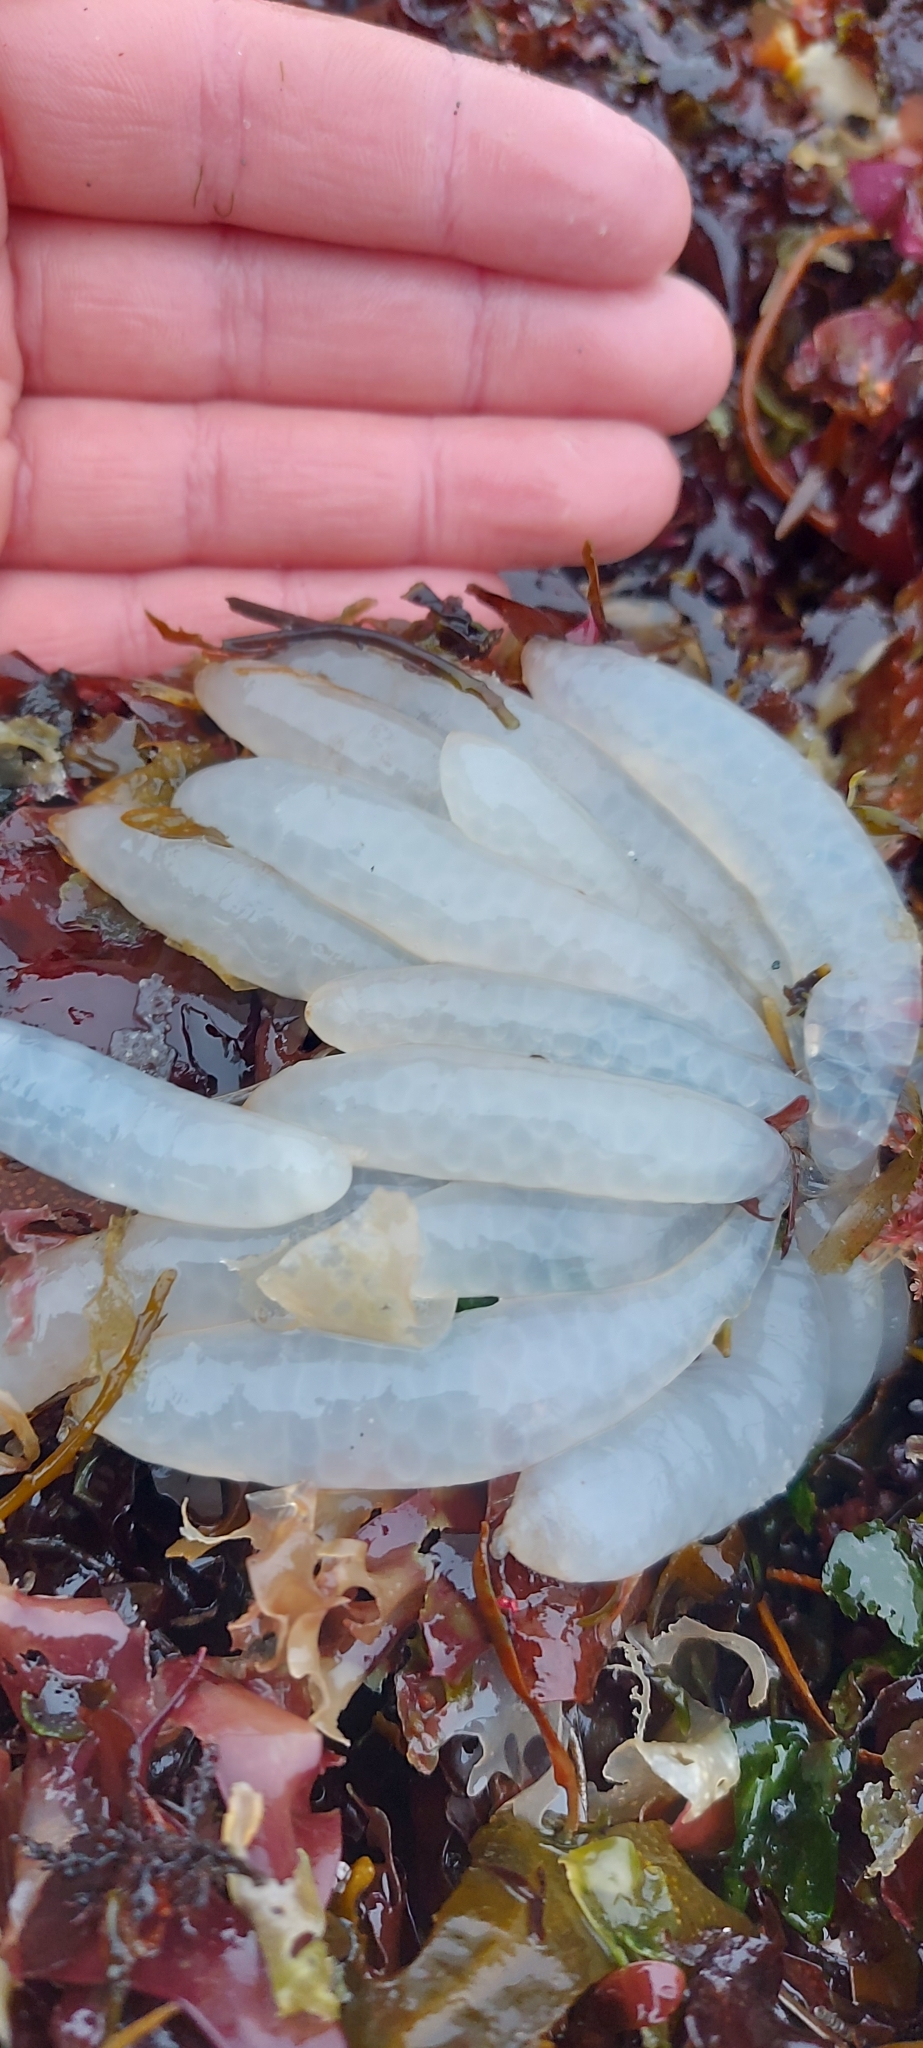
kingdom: Animalia
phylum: Mollusca
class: Cephalopoda
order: Myopsida
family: Loliginidae
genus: Doryteuthis
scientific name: Doryteuthis opalescens
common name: Opalescent inshore squid
